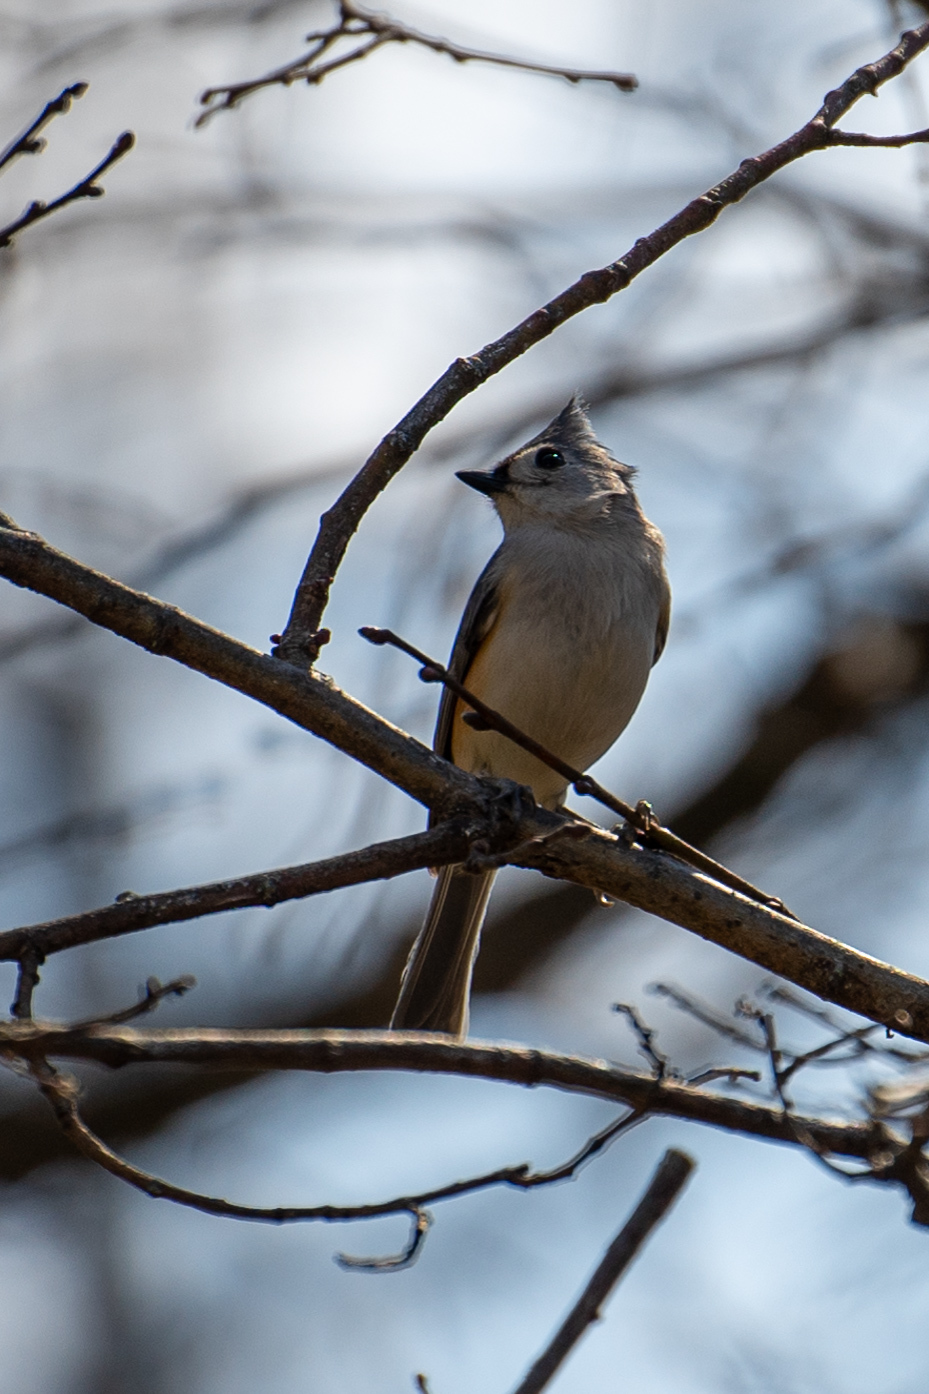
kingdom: Animalia
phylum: Chordata
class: Aves
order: Passeriformes
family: Paridae
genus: Baeolophus
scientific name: Baeolophus bicolor
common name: Tufted titmouse
